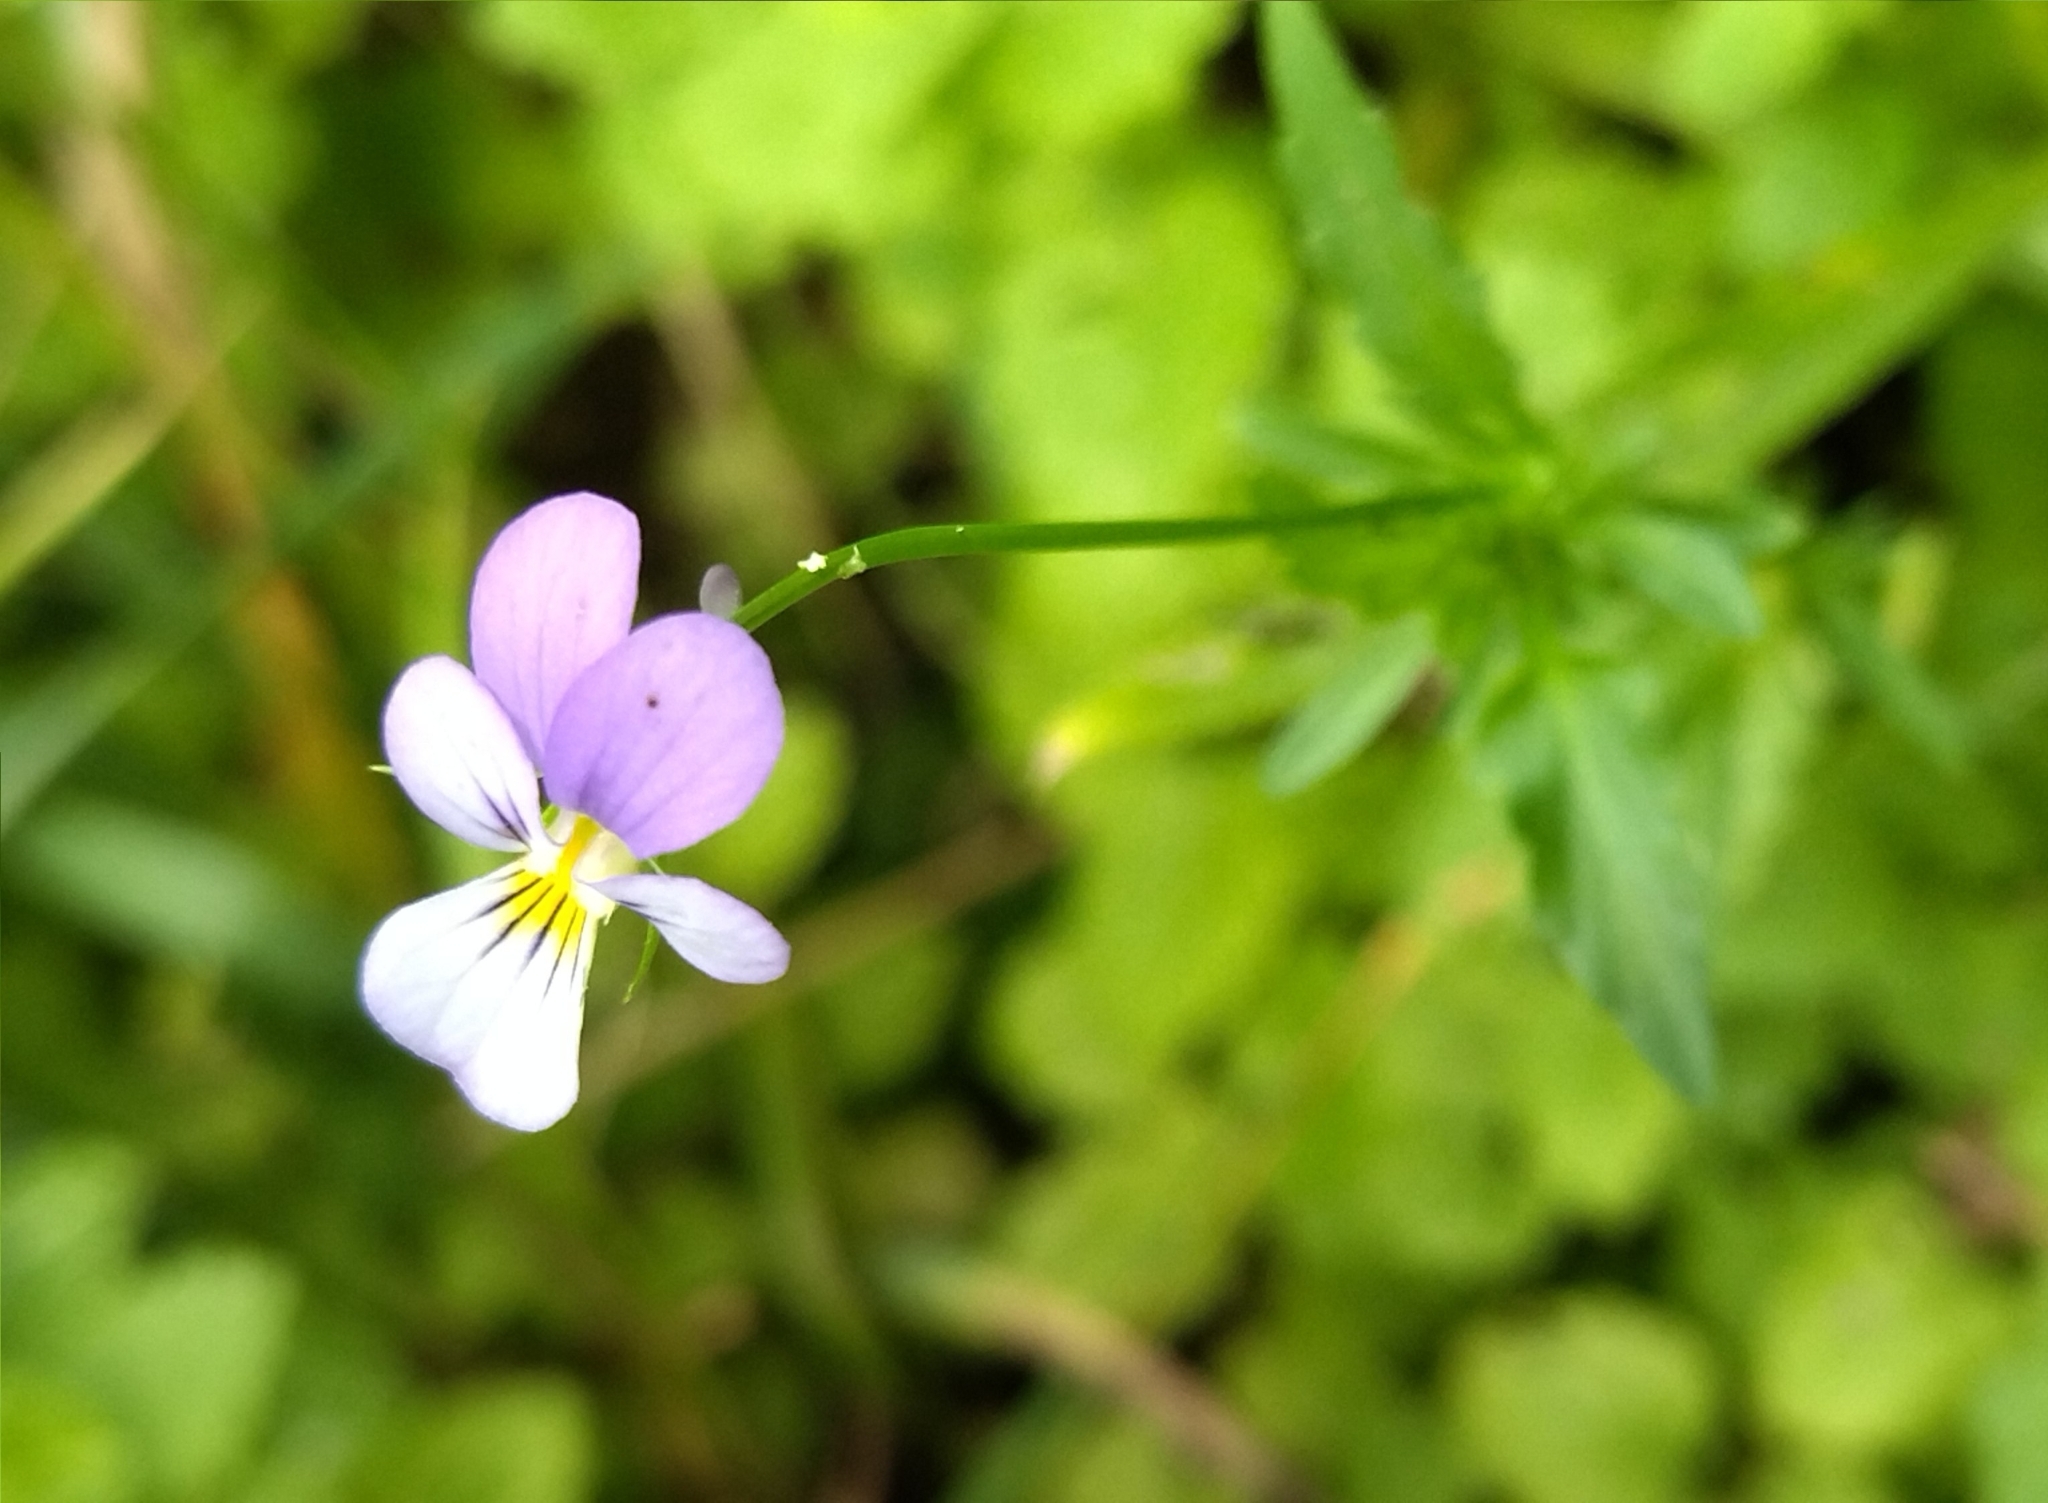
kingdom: Plantae
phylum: Tracheophyta
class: Magnoliopsida
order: Malpighiales
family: Violaceae
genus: Viola
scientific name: Viola tricolor
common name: Pansy
